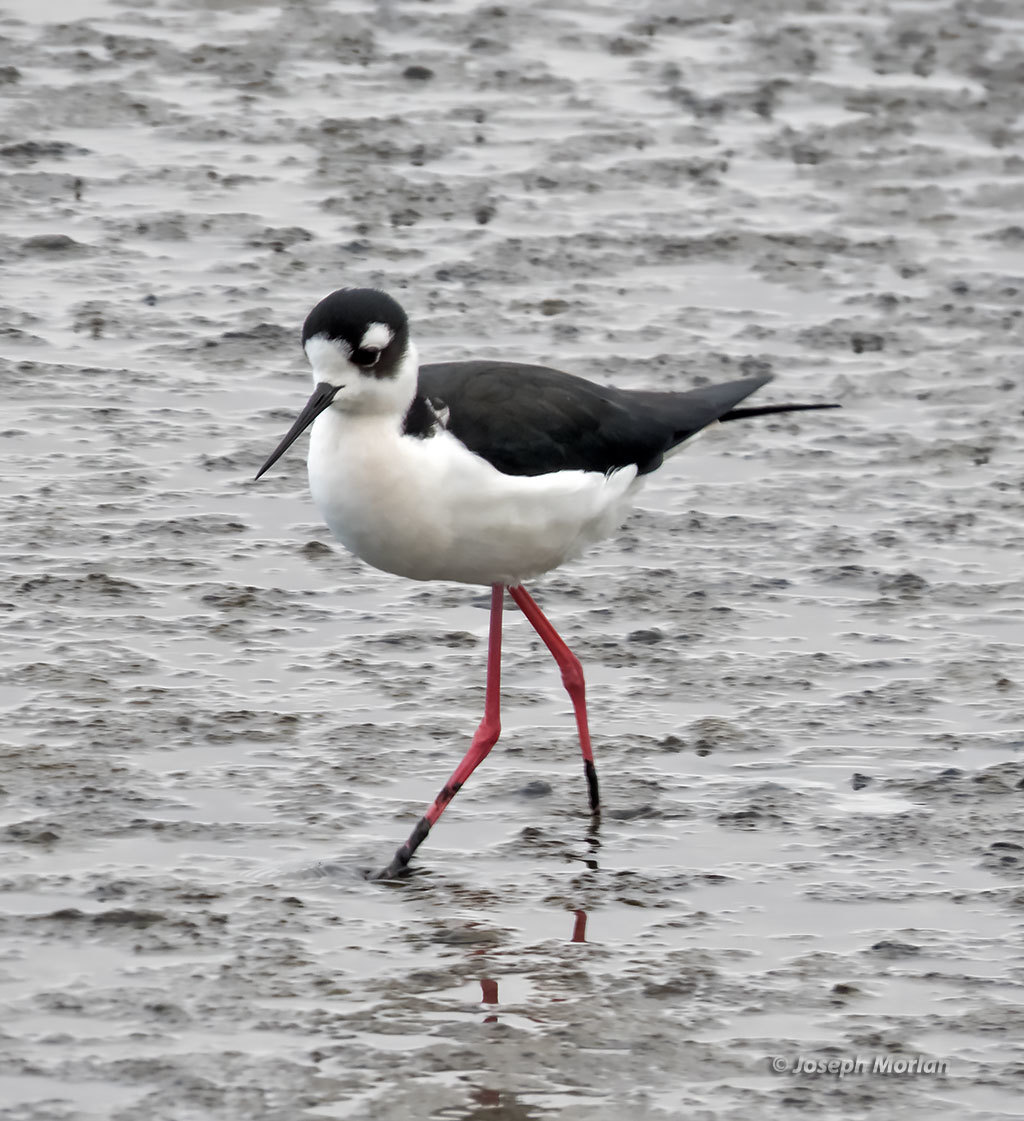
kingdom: Animalia
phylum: Chordata
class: Aves
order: Charadriiformes
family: Recurvirostridae
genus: Himantopus
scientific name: Himantopus mexicanus
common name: Black-necked stilt
